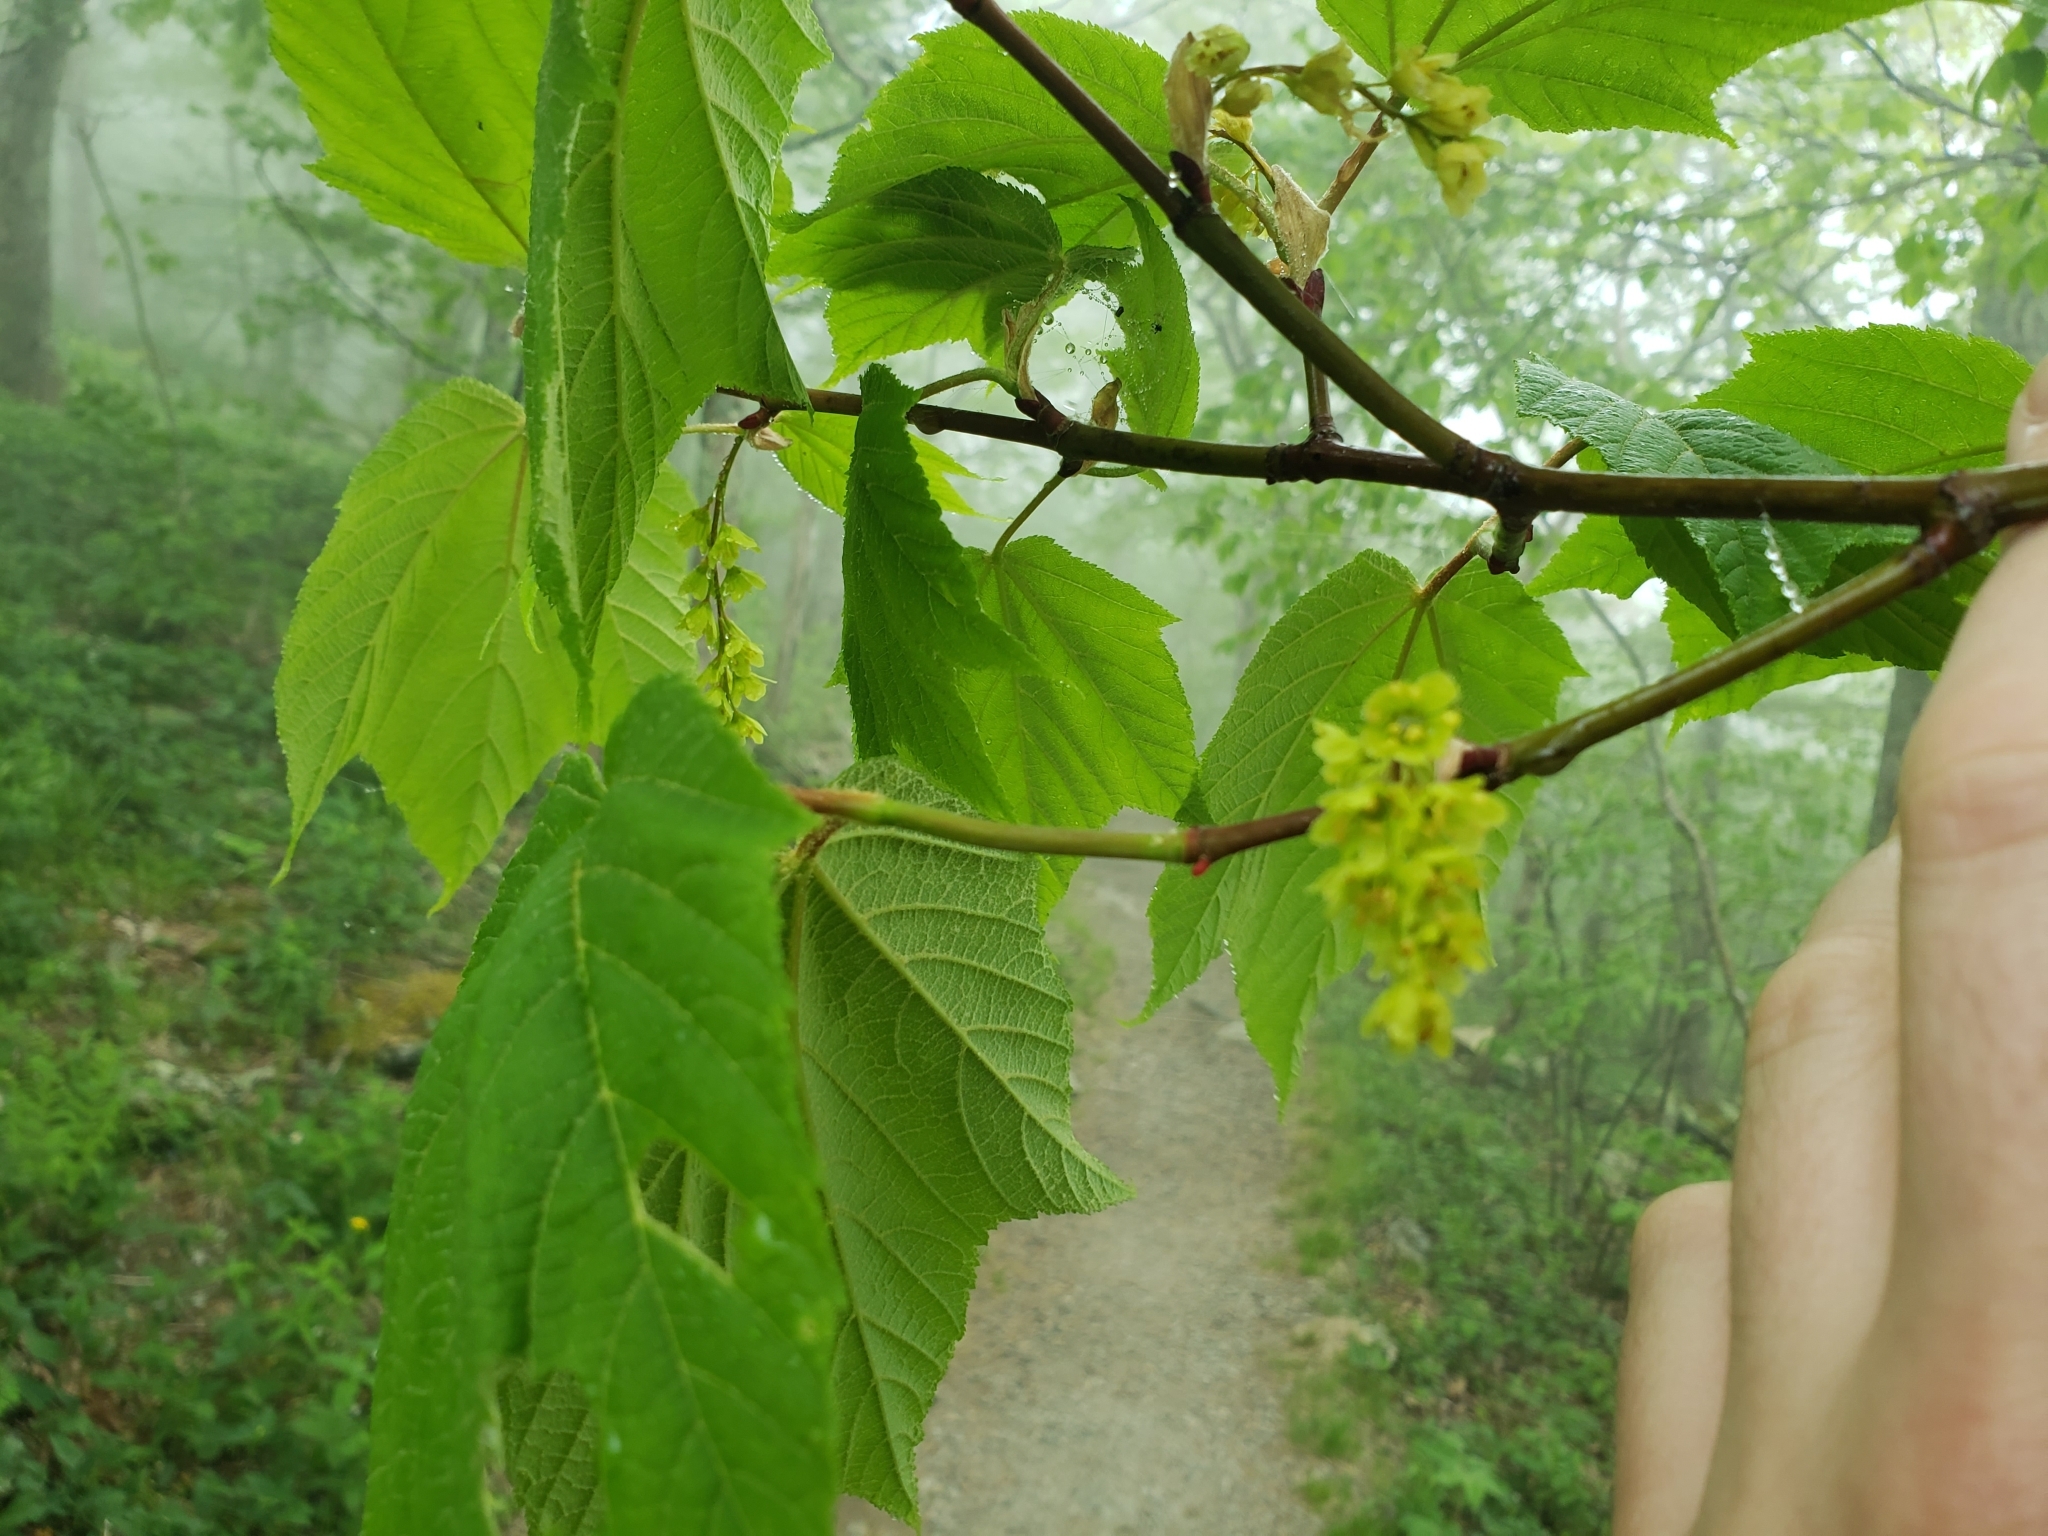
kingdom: Plantae
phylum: Tracheophyta
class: Magnoliopsida
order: Sapindales
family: Sapindaceae
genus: Acer
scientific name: Acer pensylvanicum
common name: Moosewood
